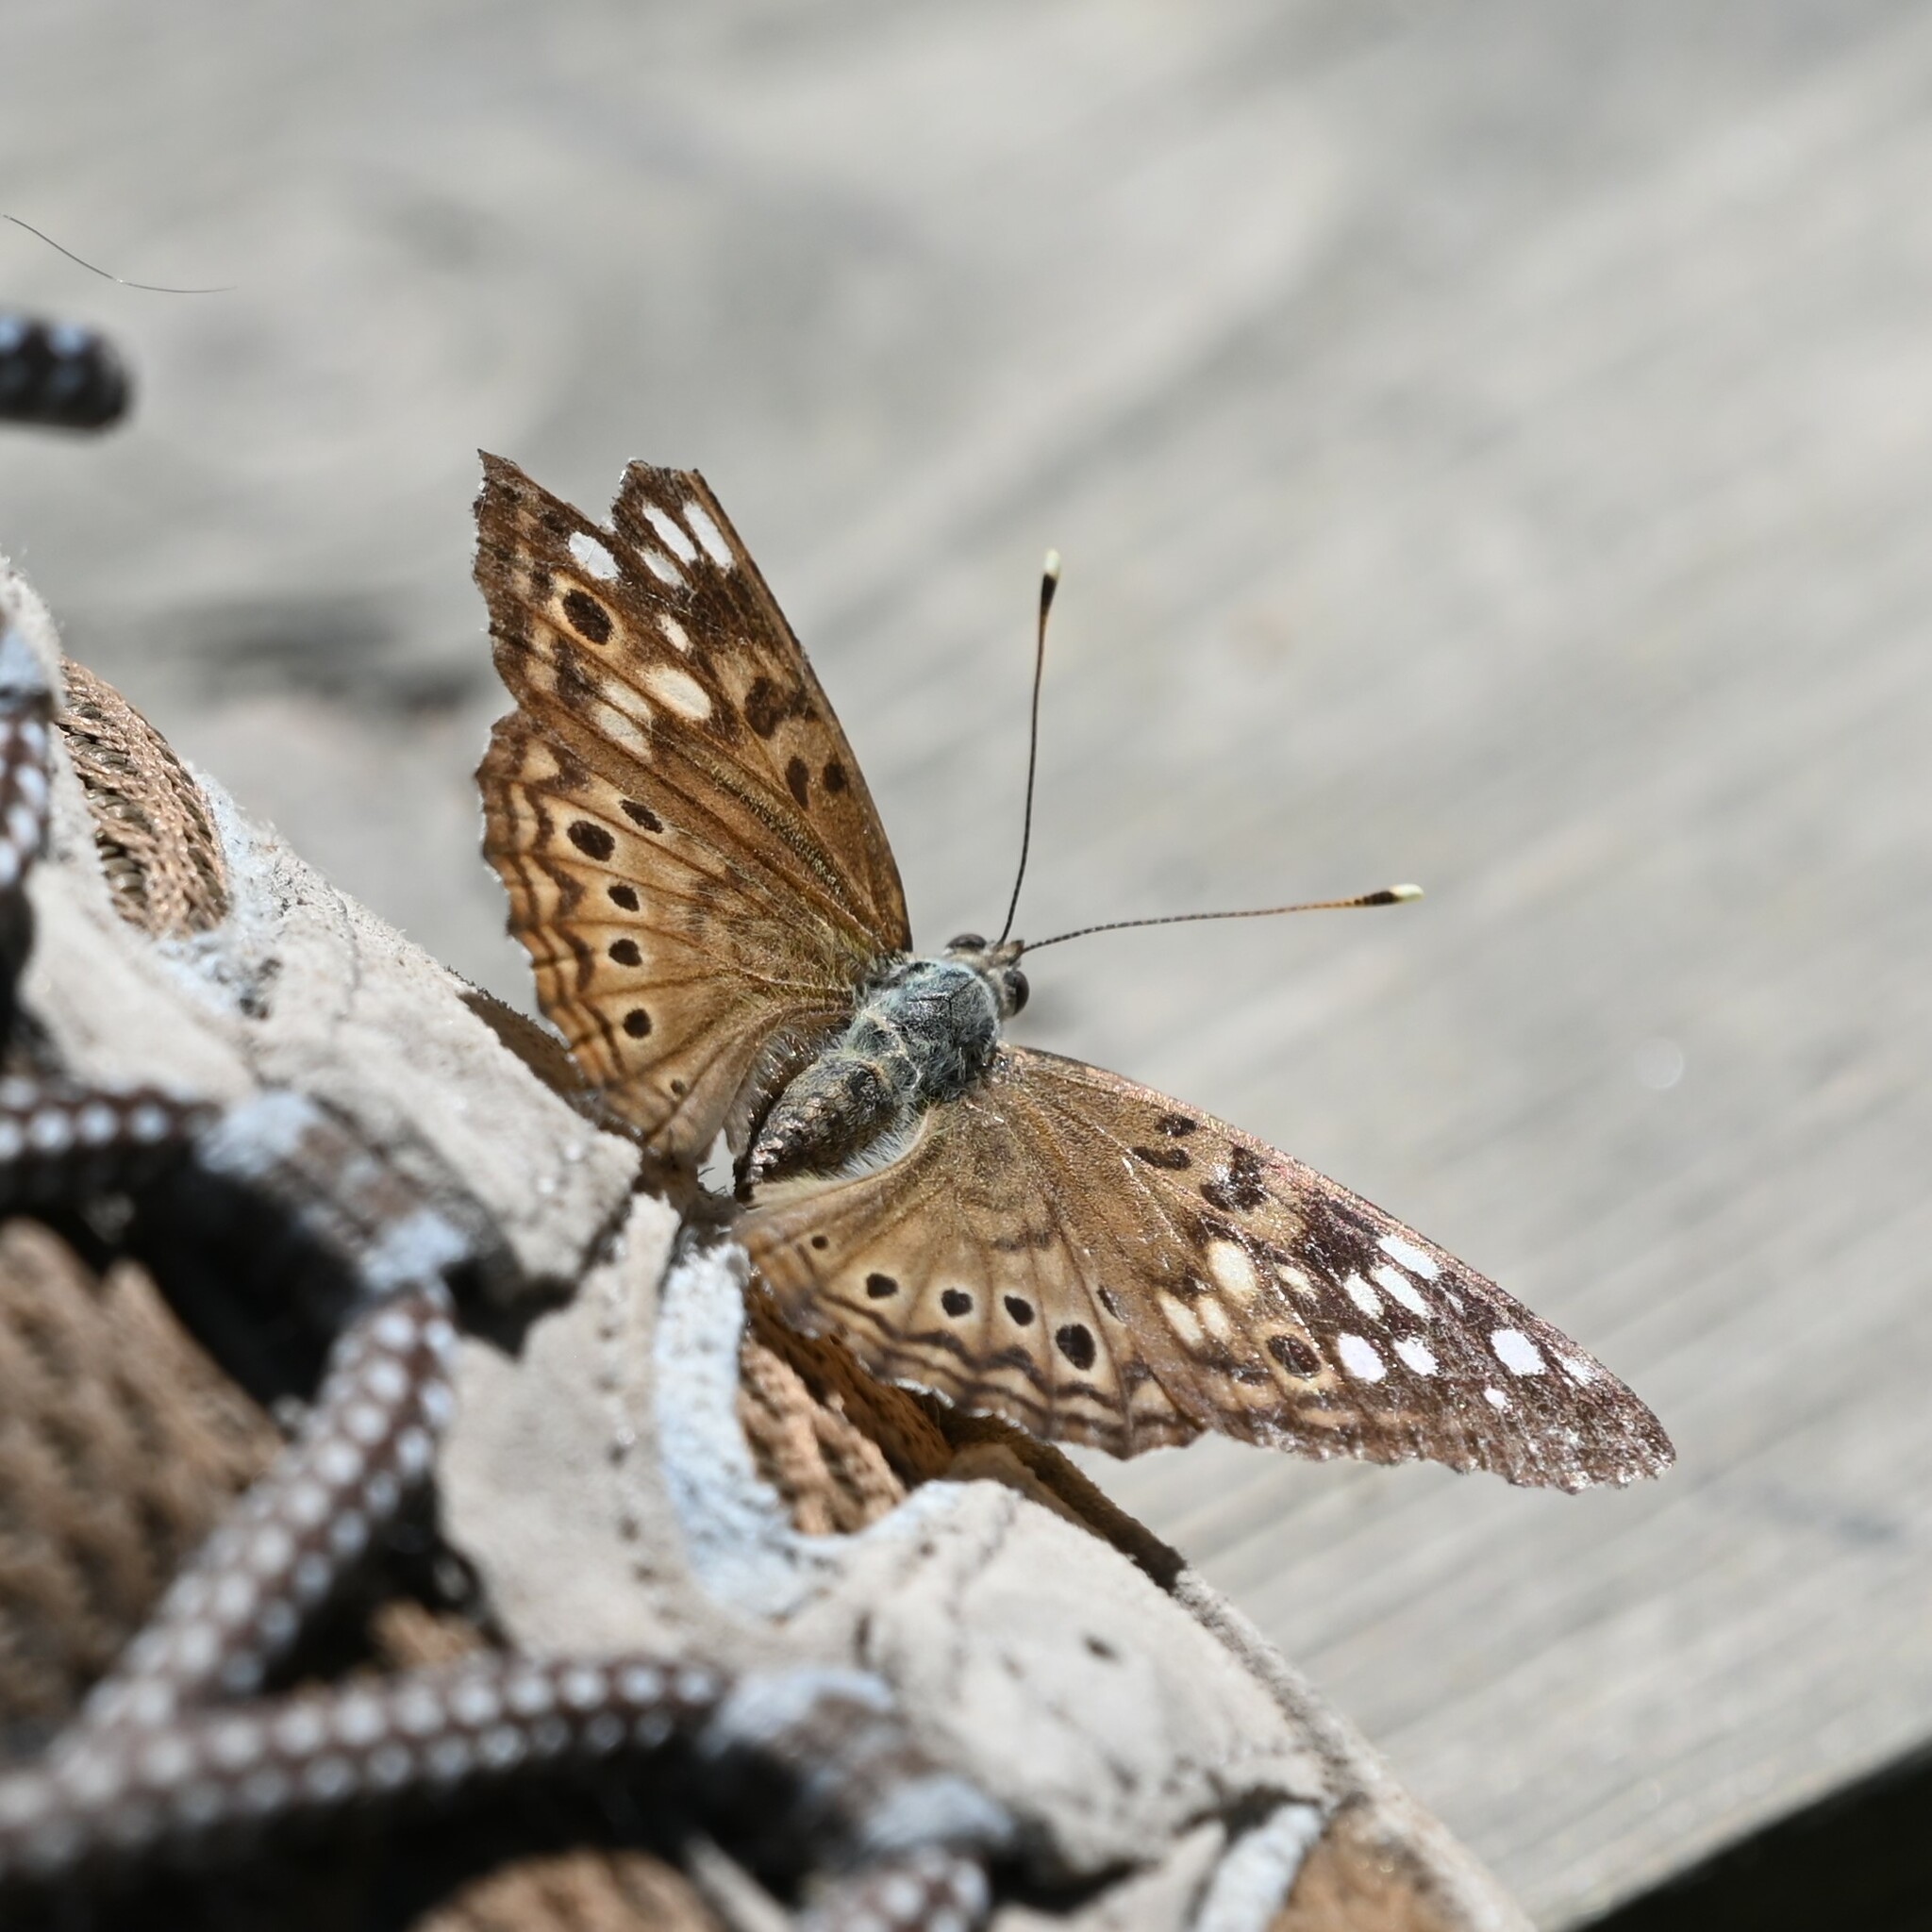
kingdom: Animalia
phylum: Arthropoda
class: Insecta
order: Lepidoptera
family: Nymphalidae
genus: Asterocampa
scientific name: Asterocampa celtis
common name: Hackberry emperor
